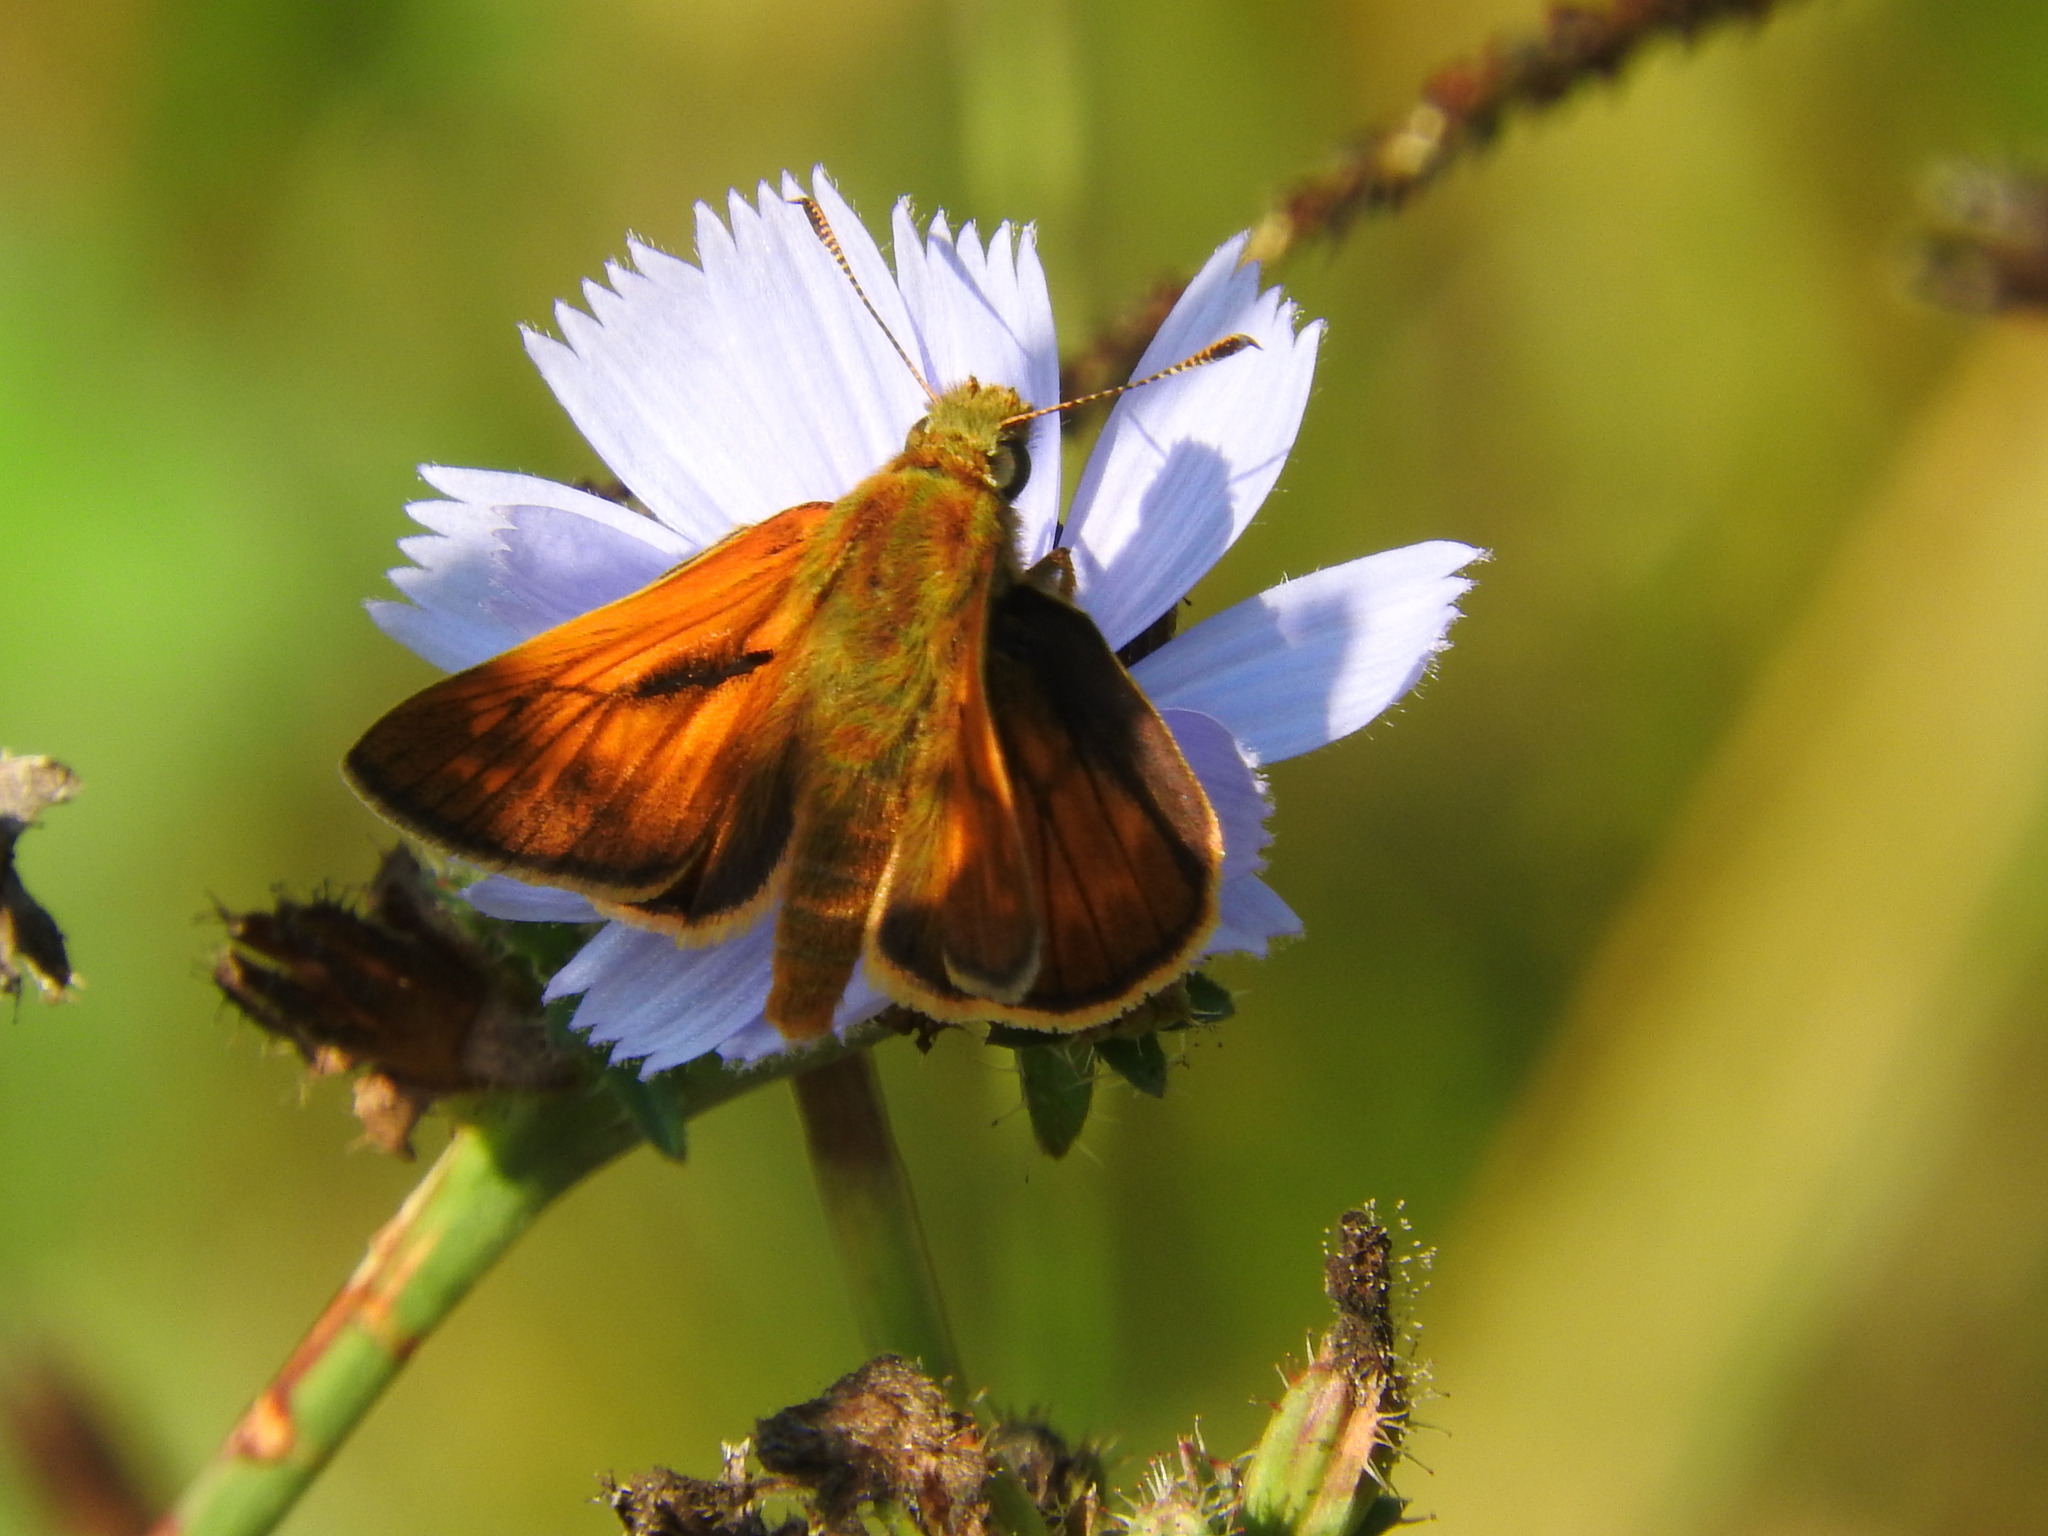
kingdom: Animalia
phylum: Arthropoda
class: Insecta
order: Lepidoptera
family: Hesperiidae
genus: Ochlodes
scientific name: Ochlodes venata
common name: Large skipper
